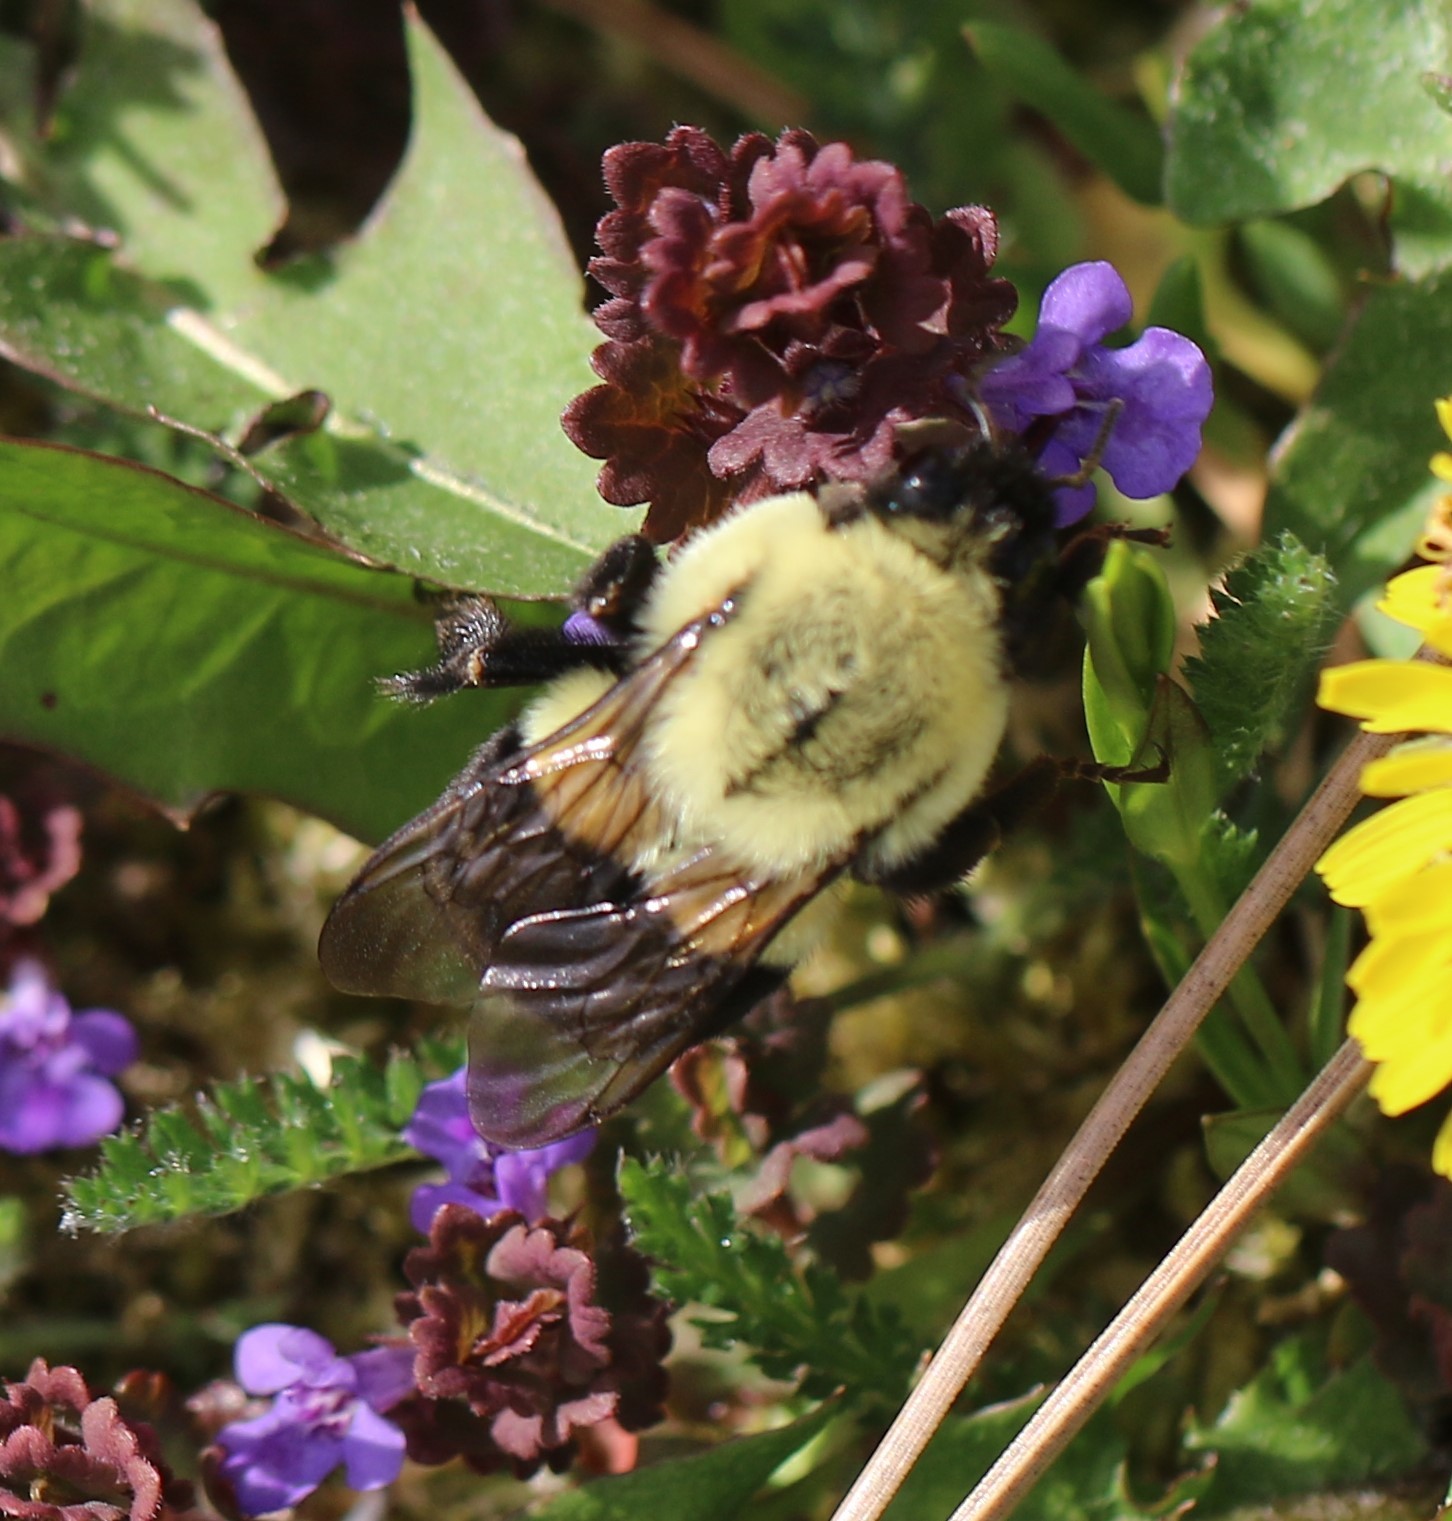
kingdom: Animalia
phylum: Arthropoda
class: Insecta
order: Hymenoptera
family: Apidae
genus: Bombus
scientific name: Bombus impatiens
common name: Common eastern bumble bee
